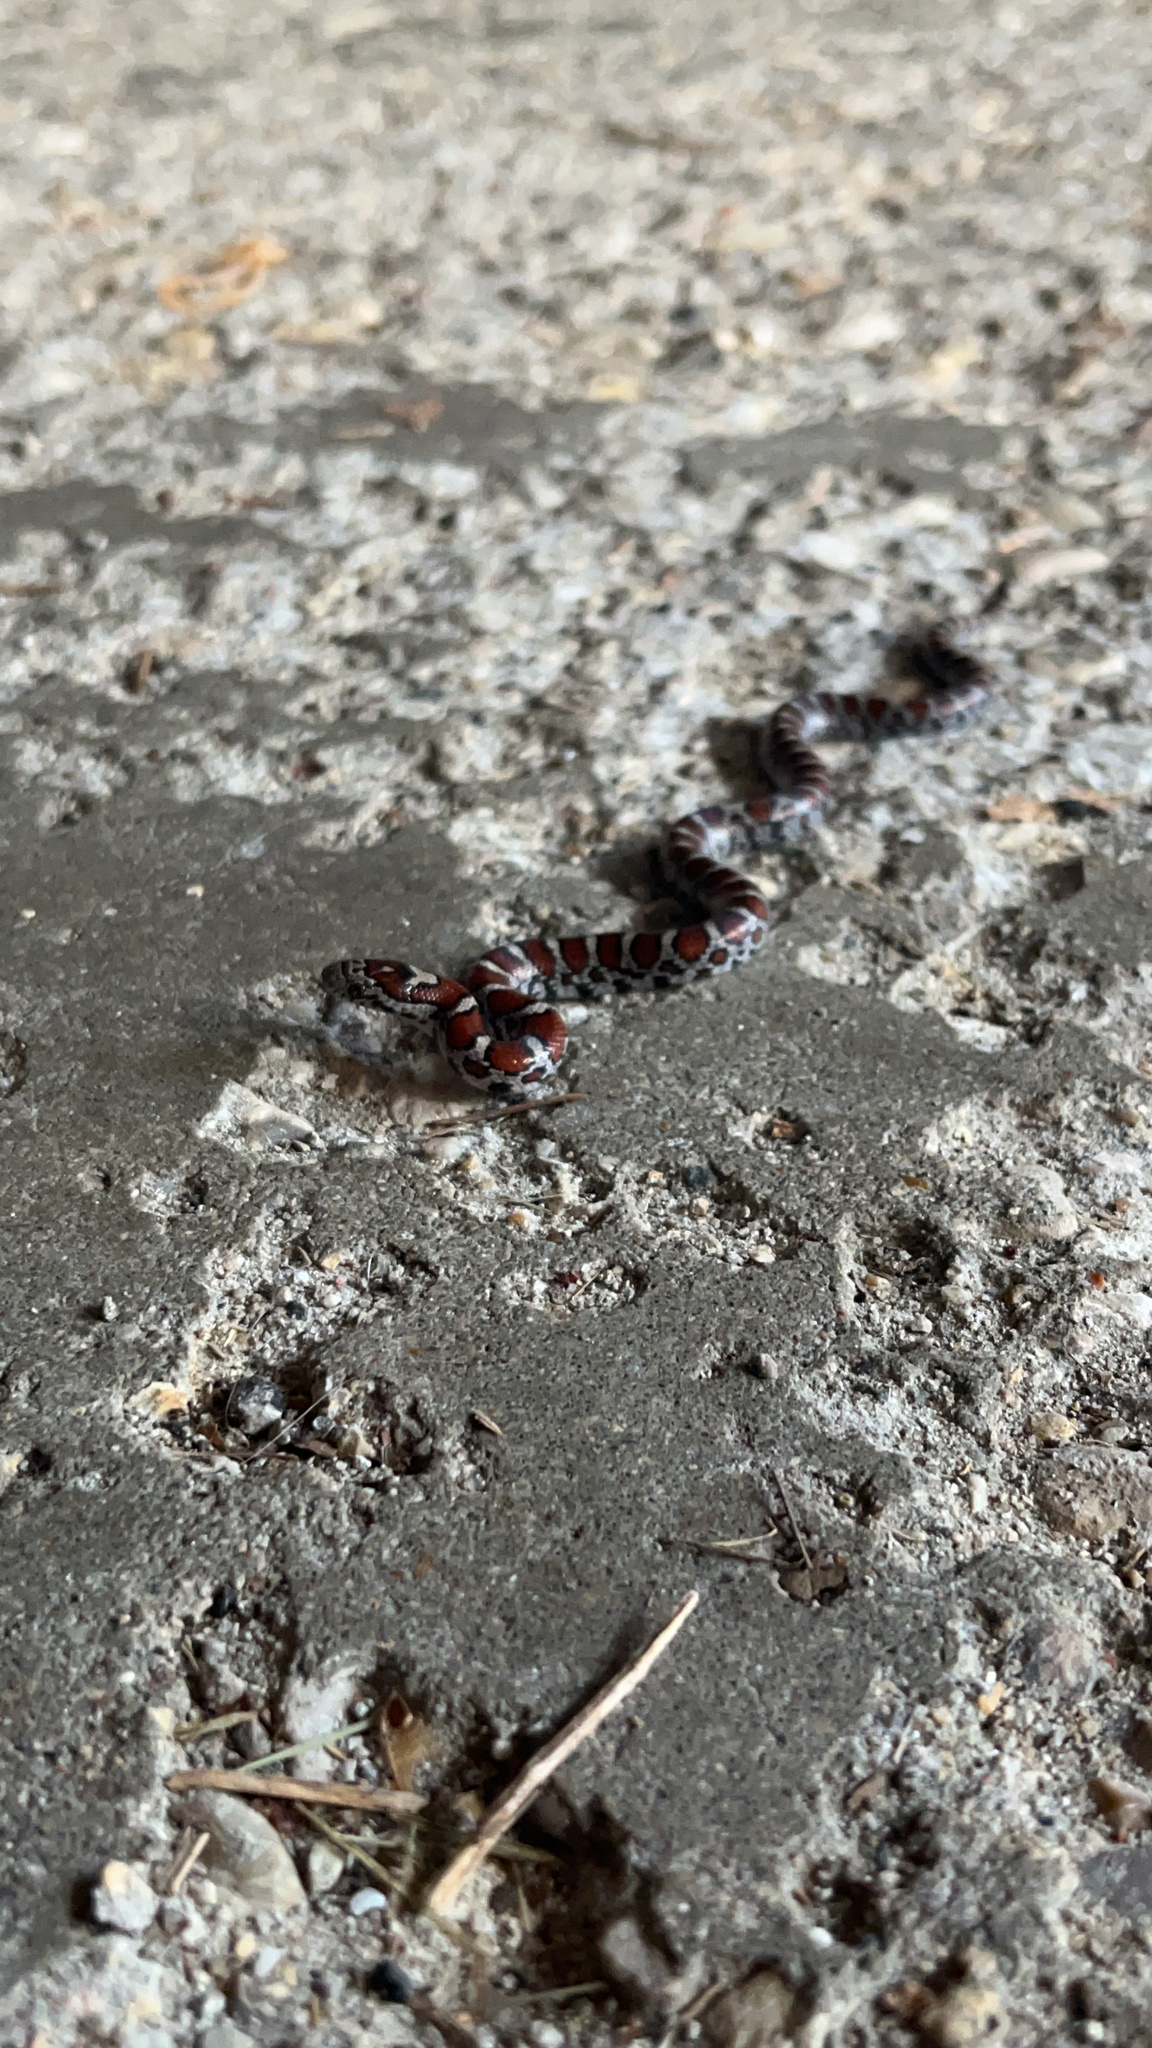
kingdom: Animalia
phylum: Chordata
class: Squamata
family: Colubridae
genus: Lampropeltis
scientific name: Lampropeltis triangulum
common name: Eastern milksnake
